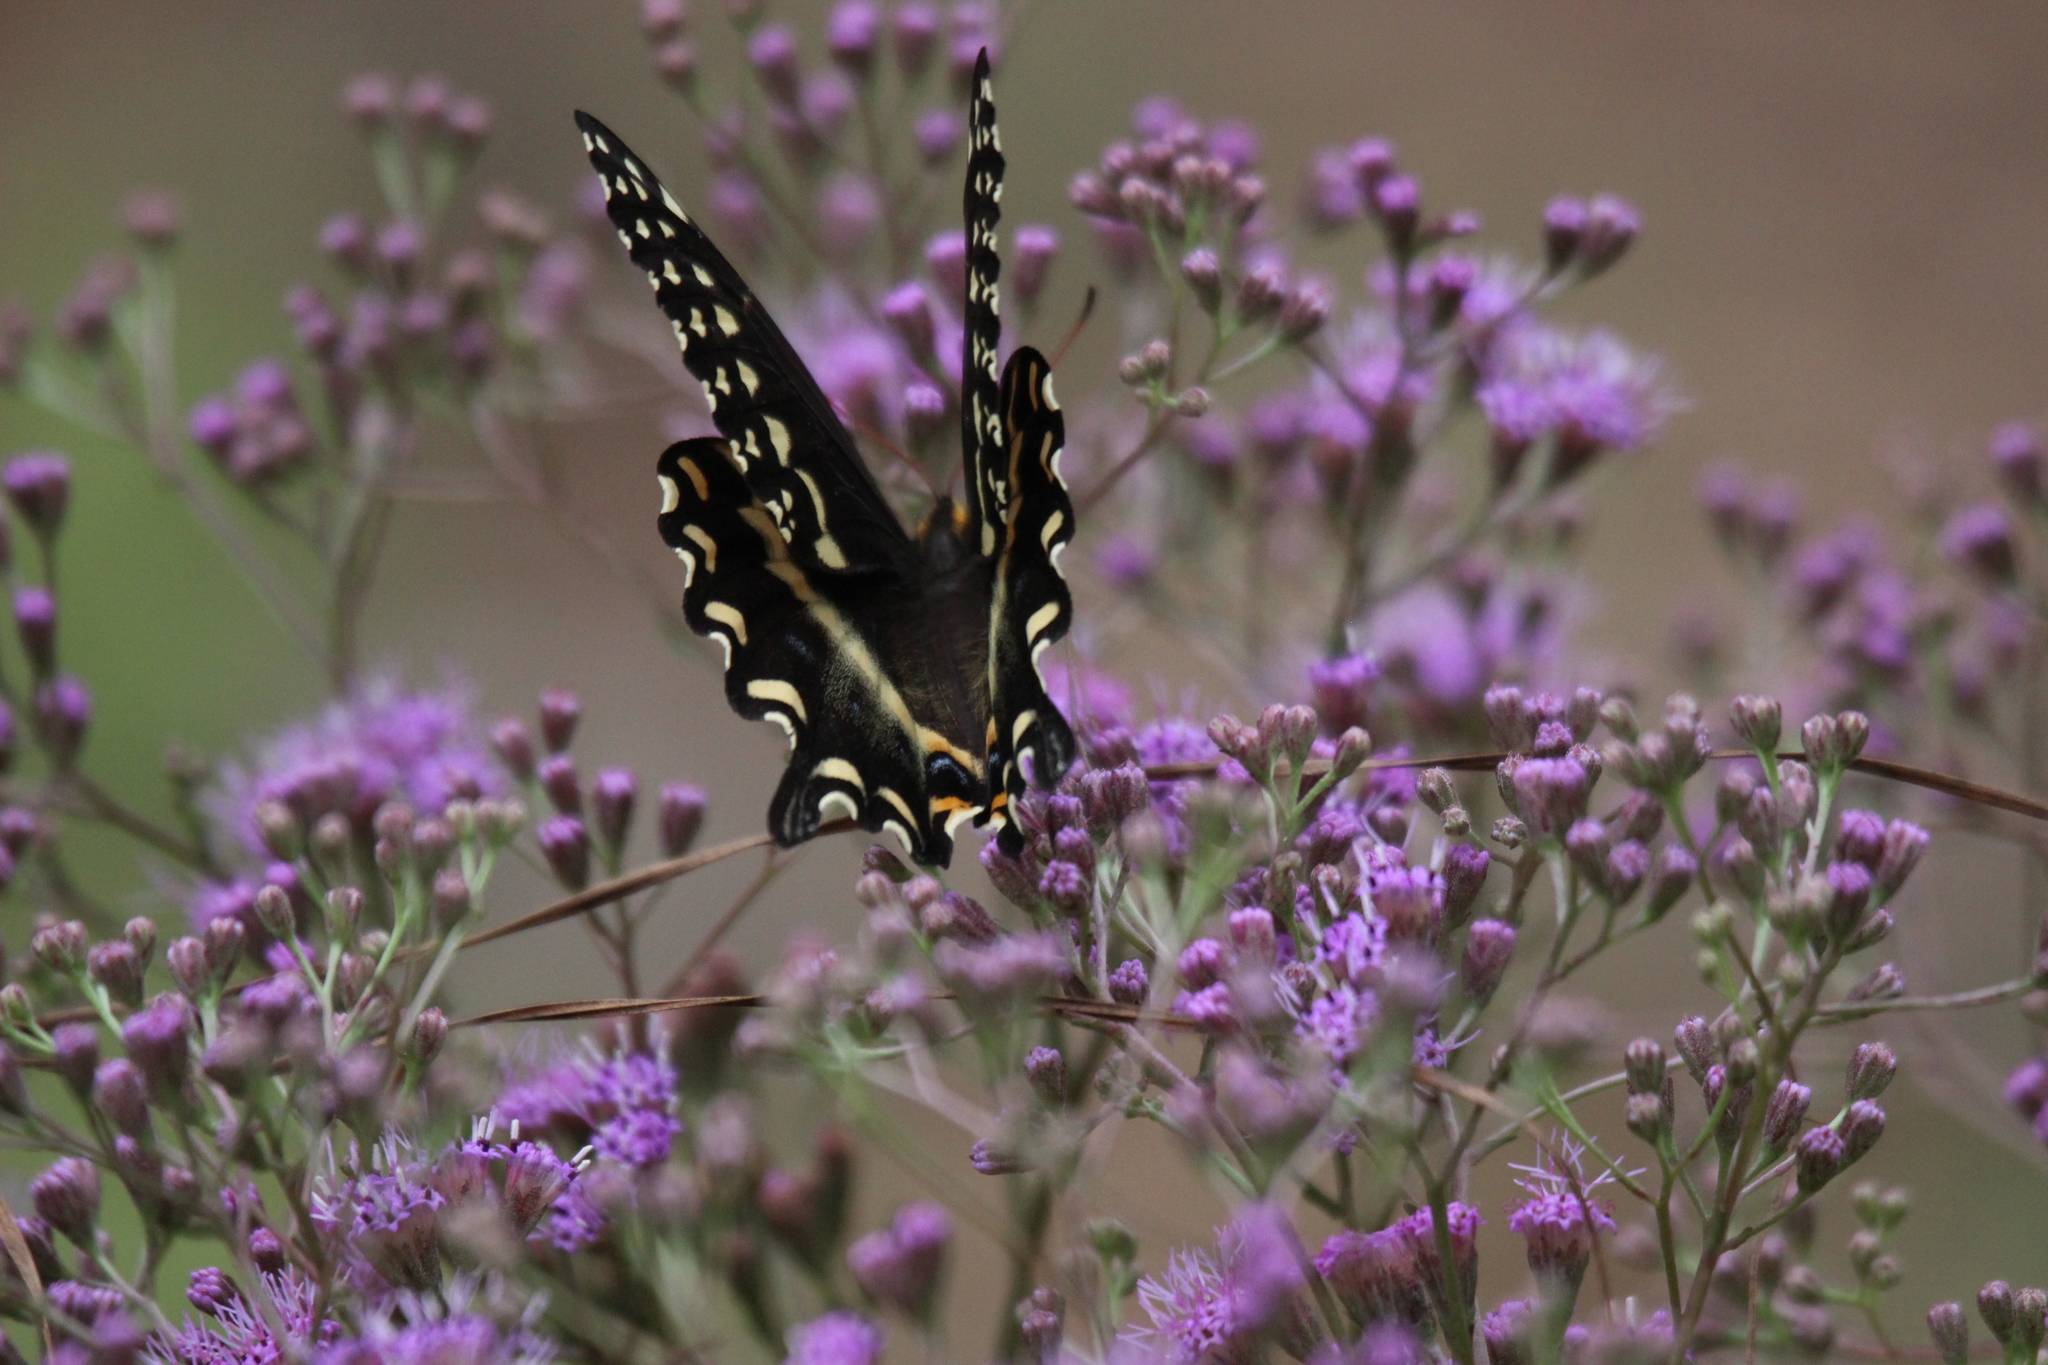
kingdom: Animalia
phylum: Arthropoda
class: Insecta
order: Lepidoptera
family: Papilionidae
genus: Papilio
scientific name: Papilio palamedes
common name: Palamedes swallowtail
